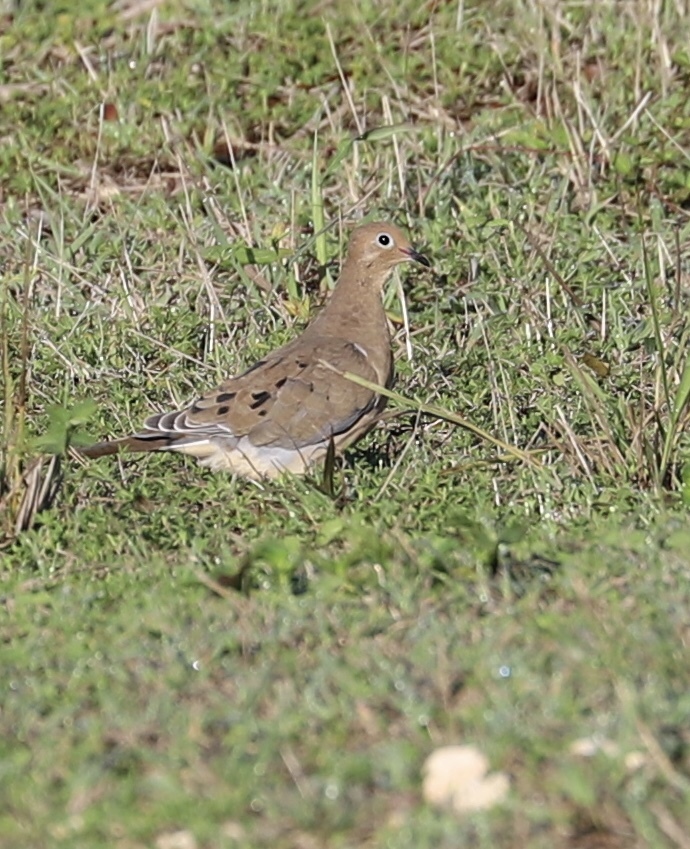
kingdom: Animalia
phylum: Chordata
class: Aves
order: Columbiformes
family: Columbidae
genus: Zenaida
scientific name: Zenaida macroura
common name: Mourning dove
